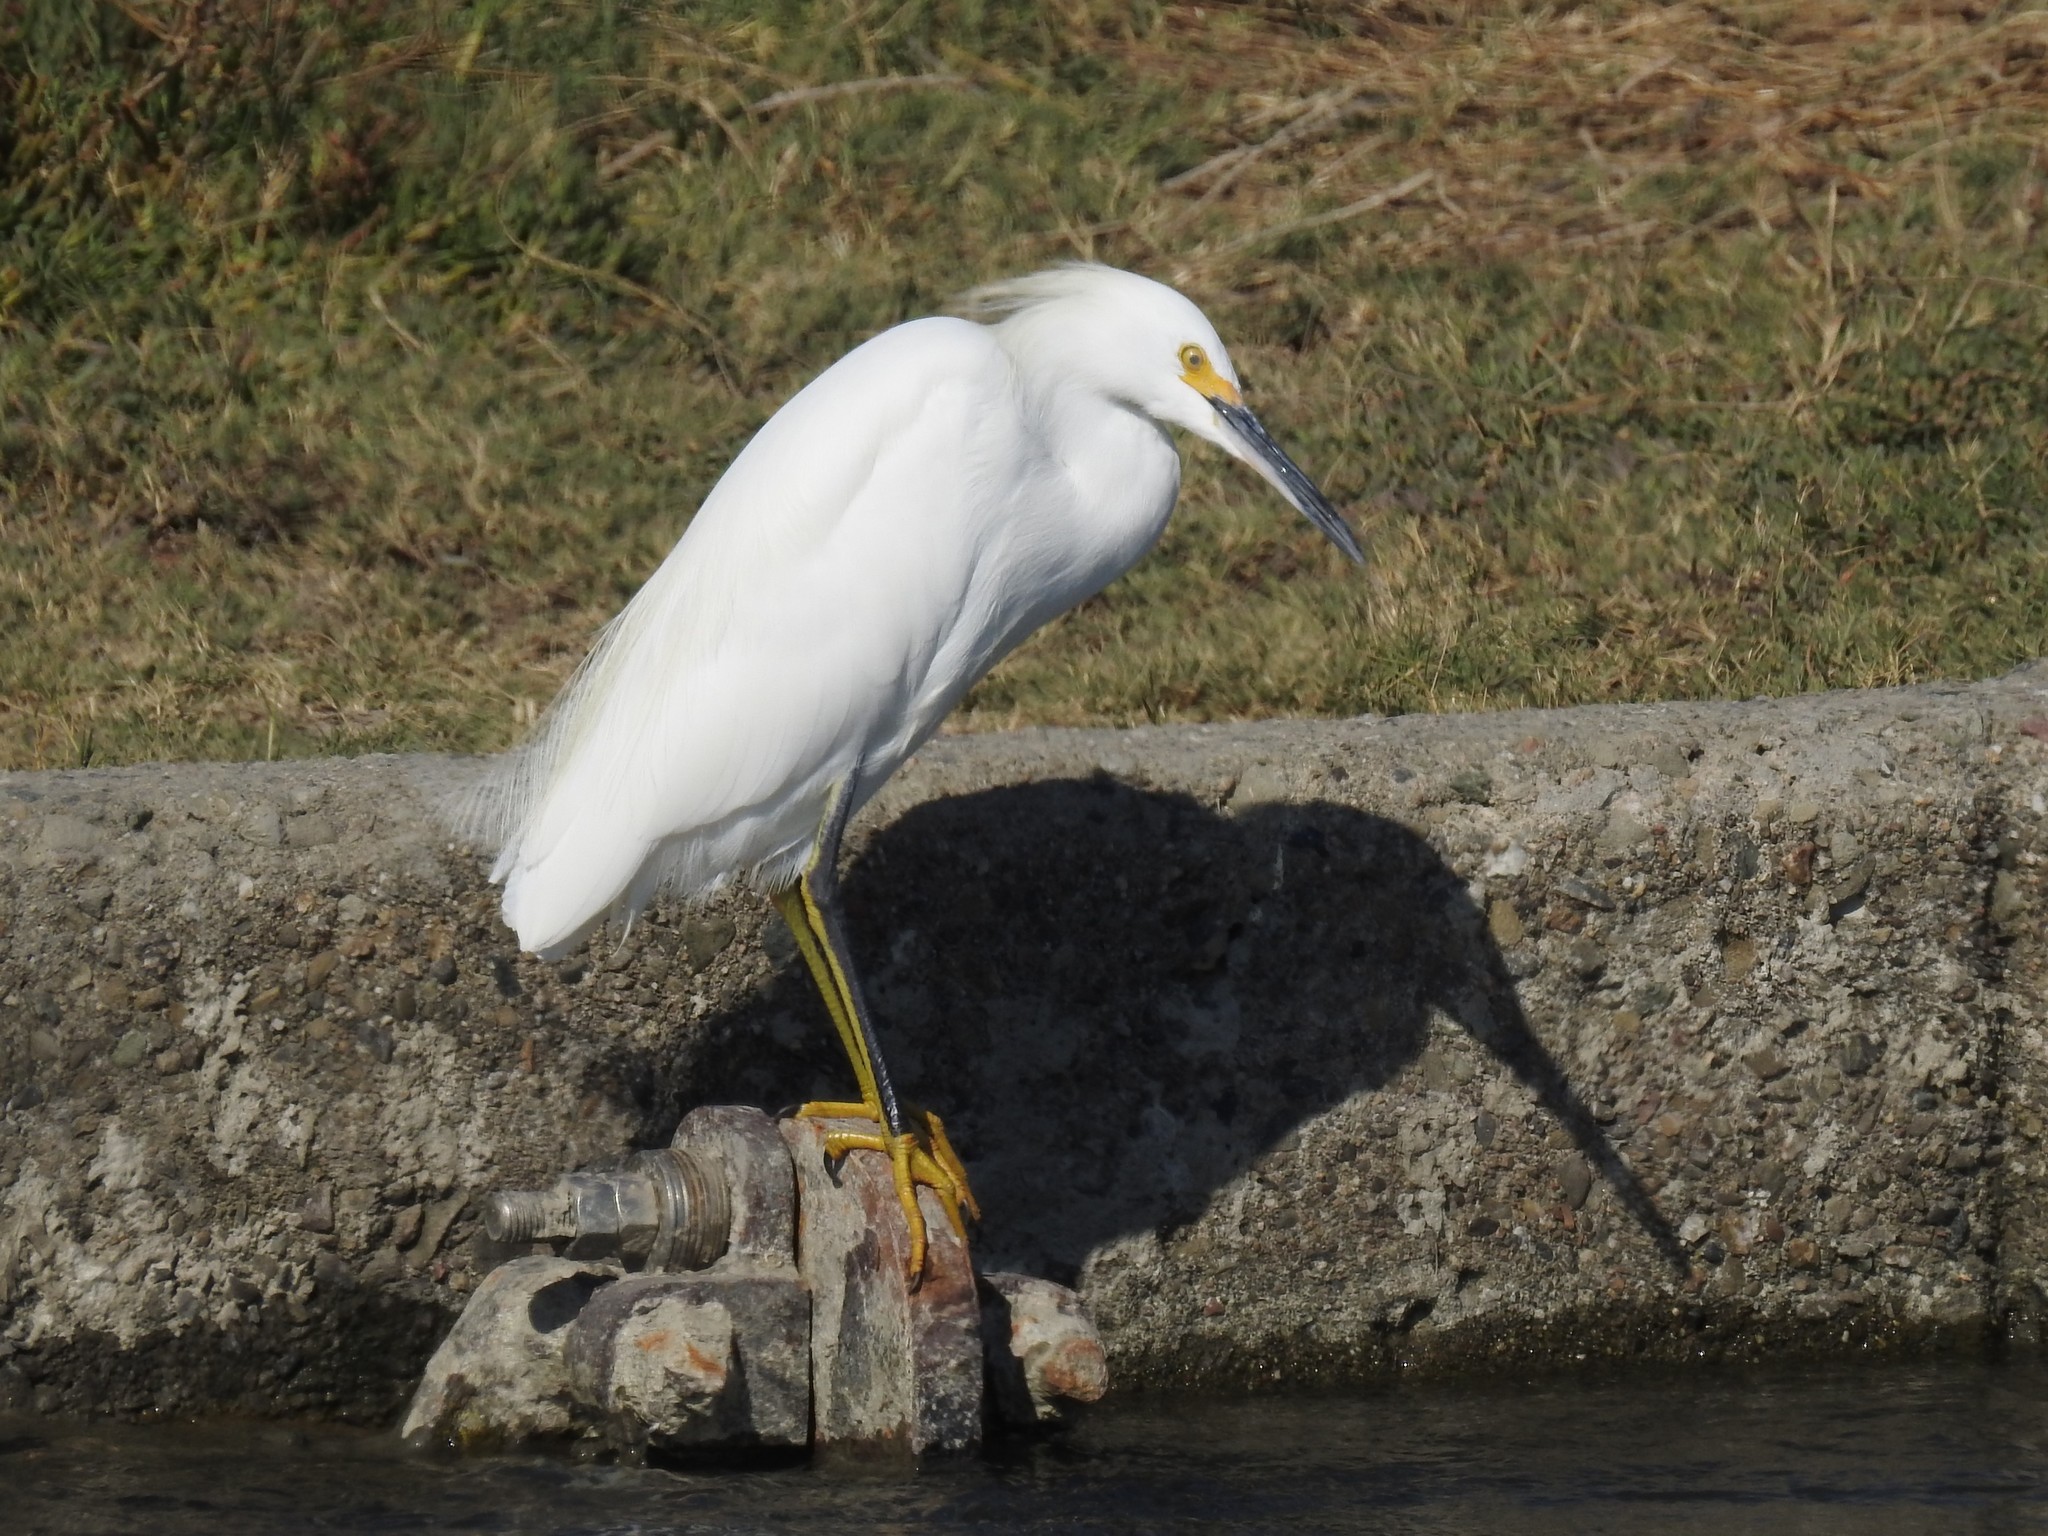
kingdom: Animalia
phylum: Chordata
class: Aves
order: Pelecaniformes
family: Ardeidae
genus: Egretta
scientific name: Egretta thula
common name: Snowy egret
